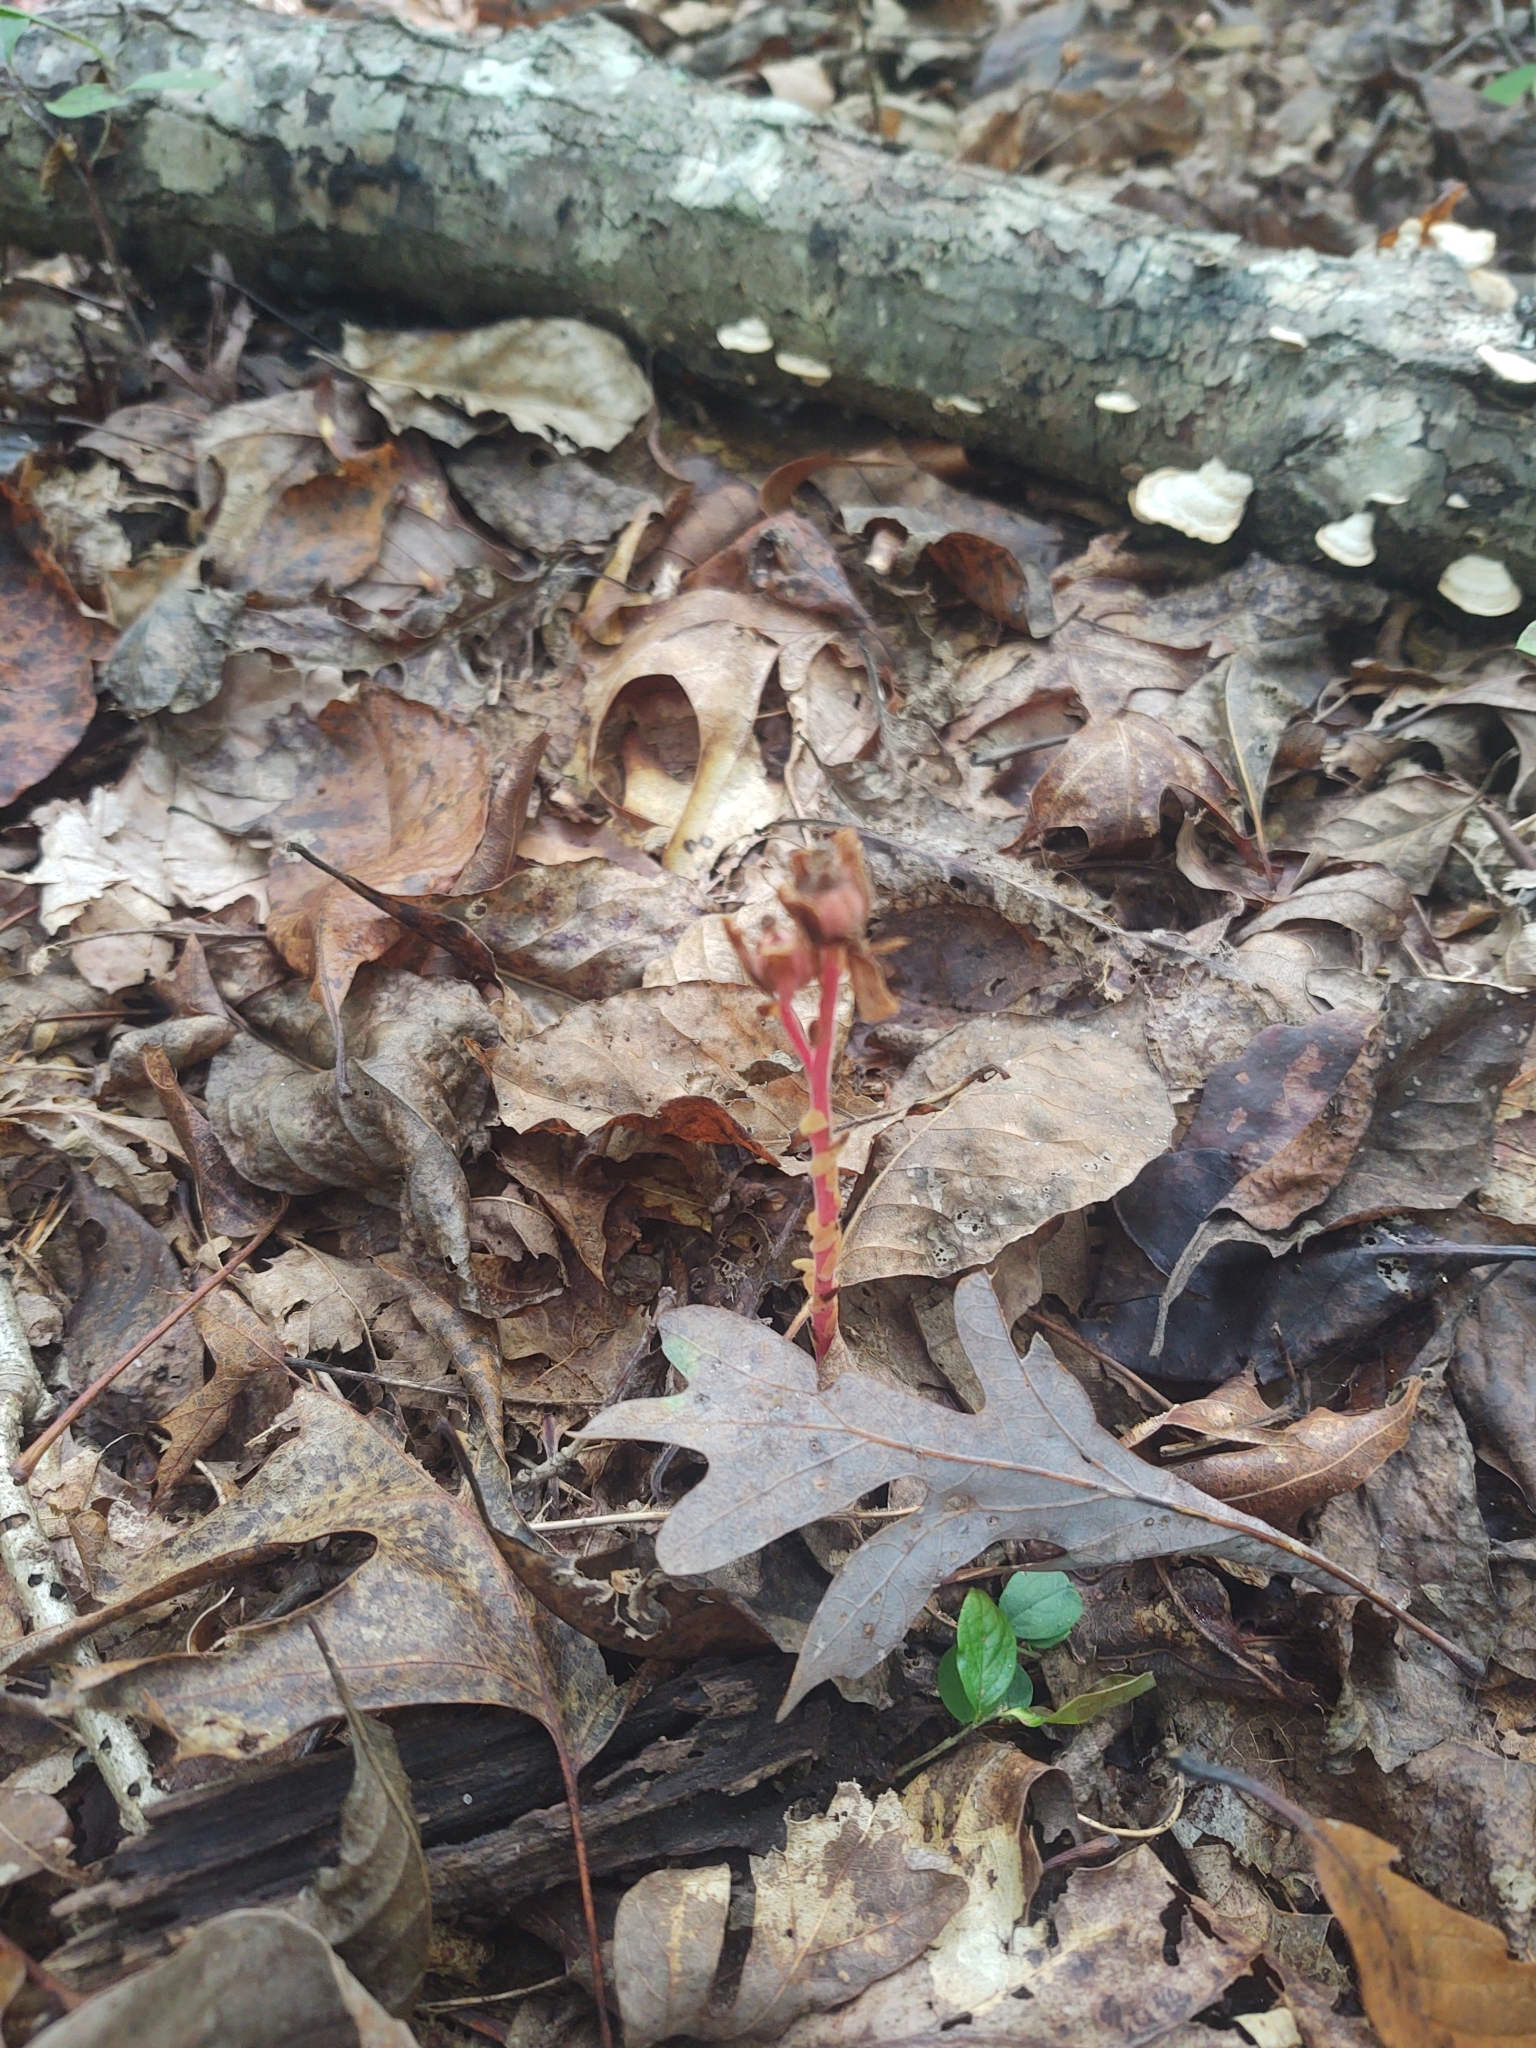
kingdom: Plantae
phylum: Tracheophyta
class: Magnoliopsida
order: Ericales
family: Ericaceae
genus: Hypopitys
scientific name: Hypopitys monotropa
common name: Yellow bird's-nest
